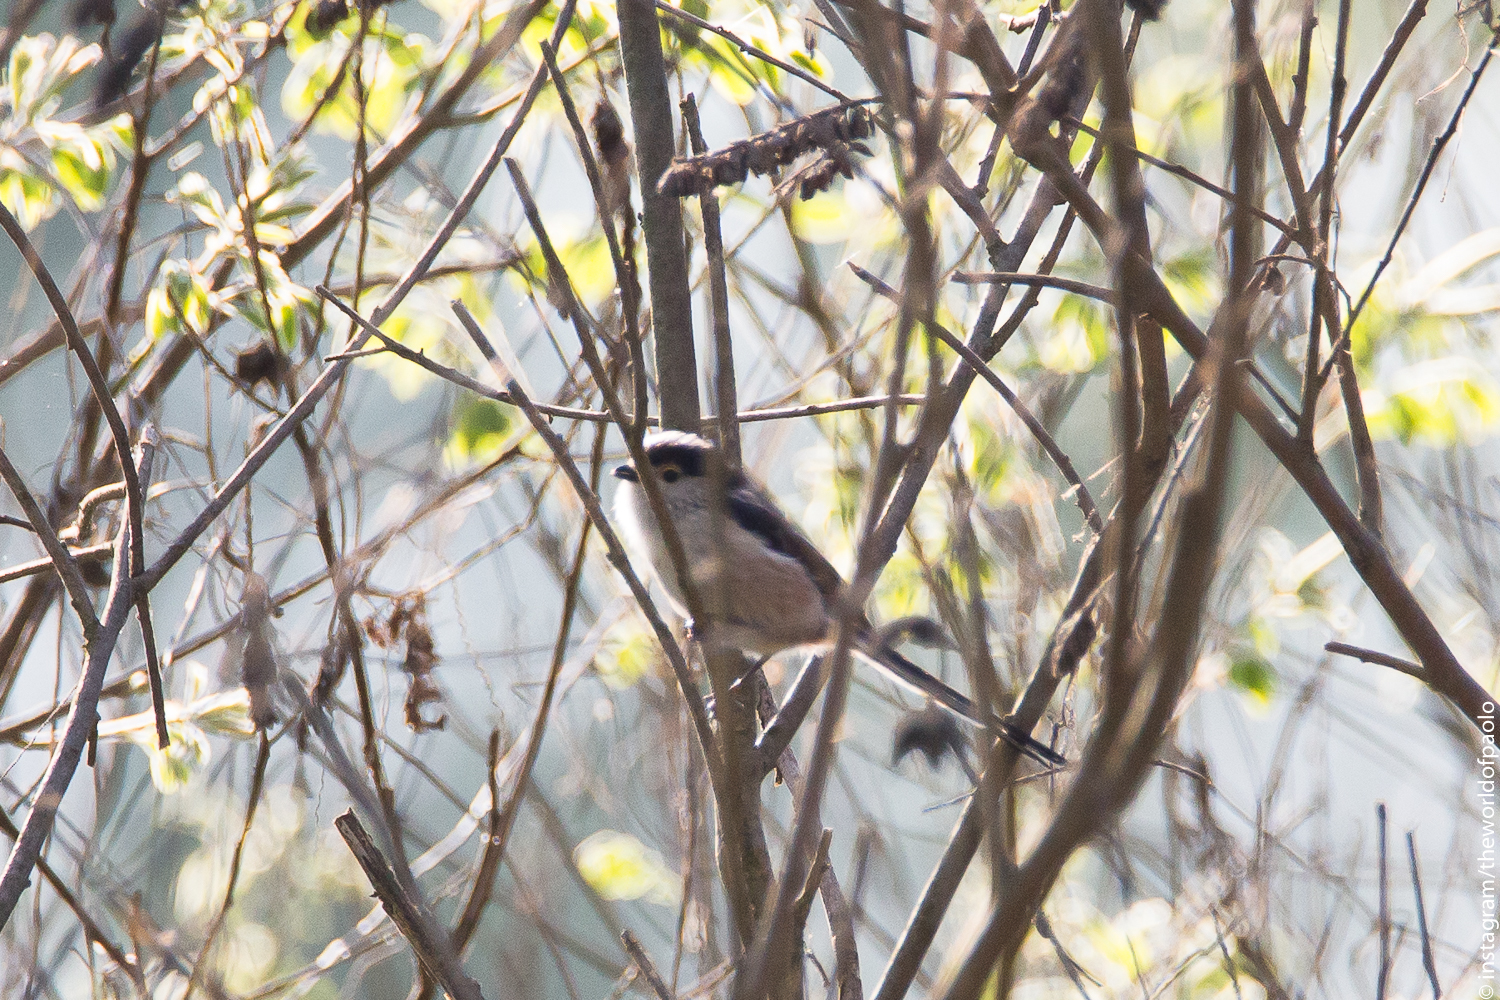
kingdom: Animalia
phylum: Chordata
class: Aves
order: Passeriformes
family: Aegithalidae
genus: Aegithalos
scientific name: Aegithalos caudatus
